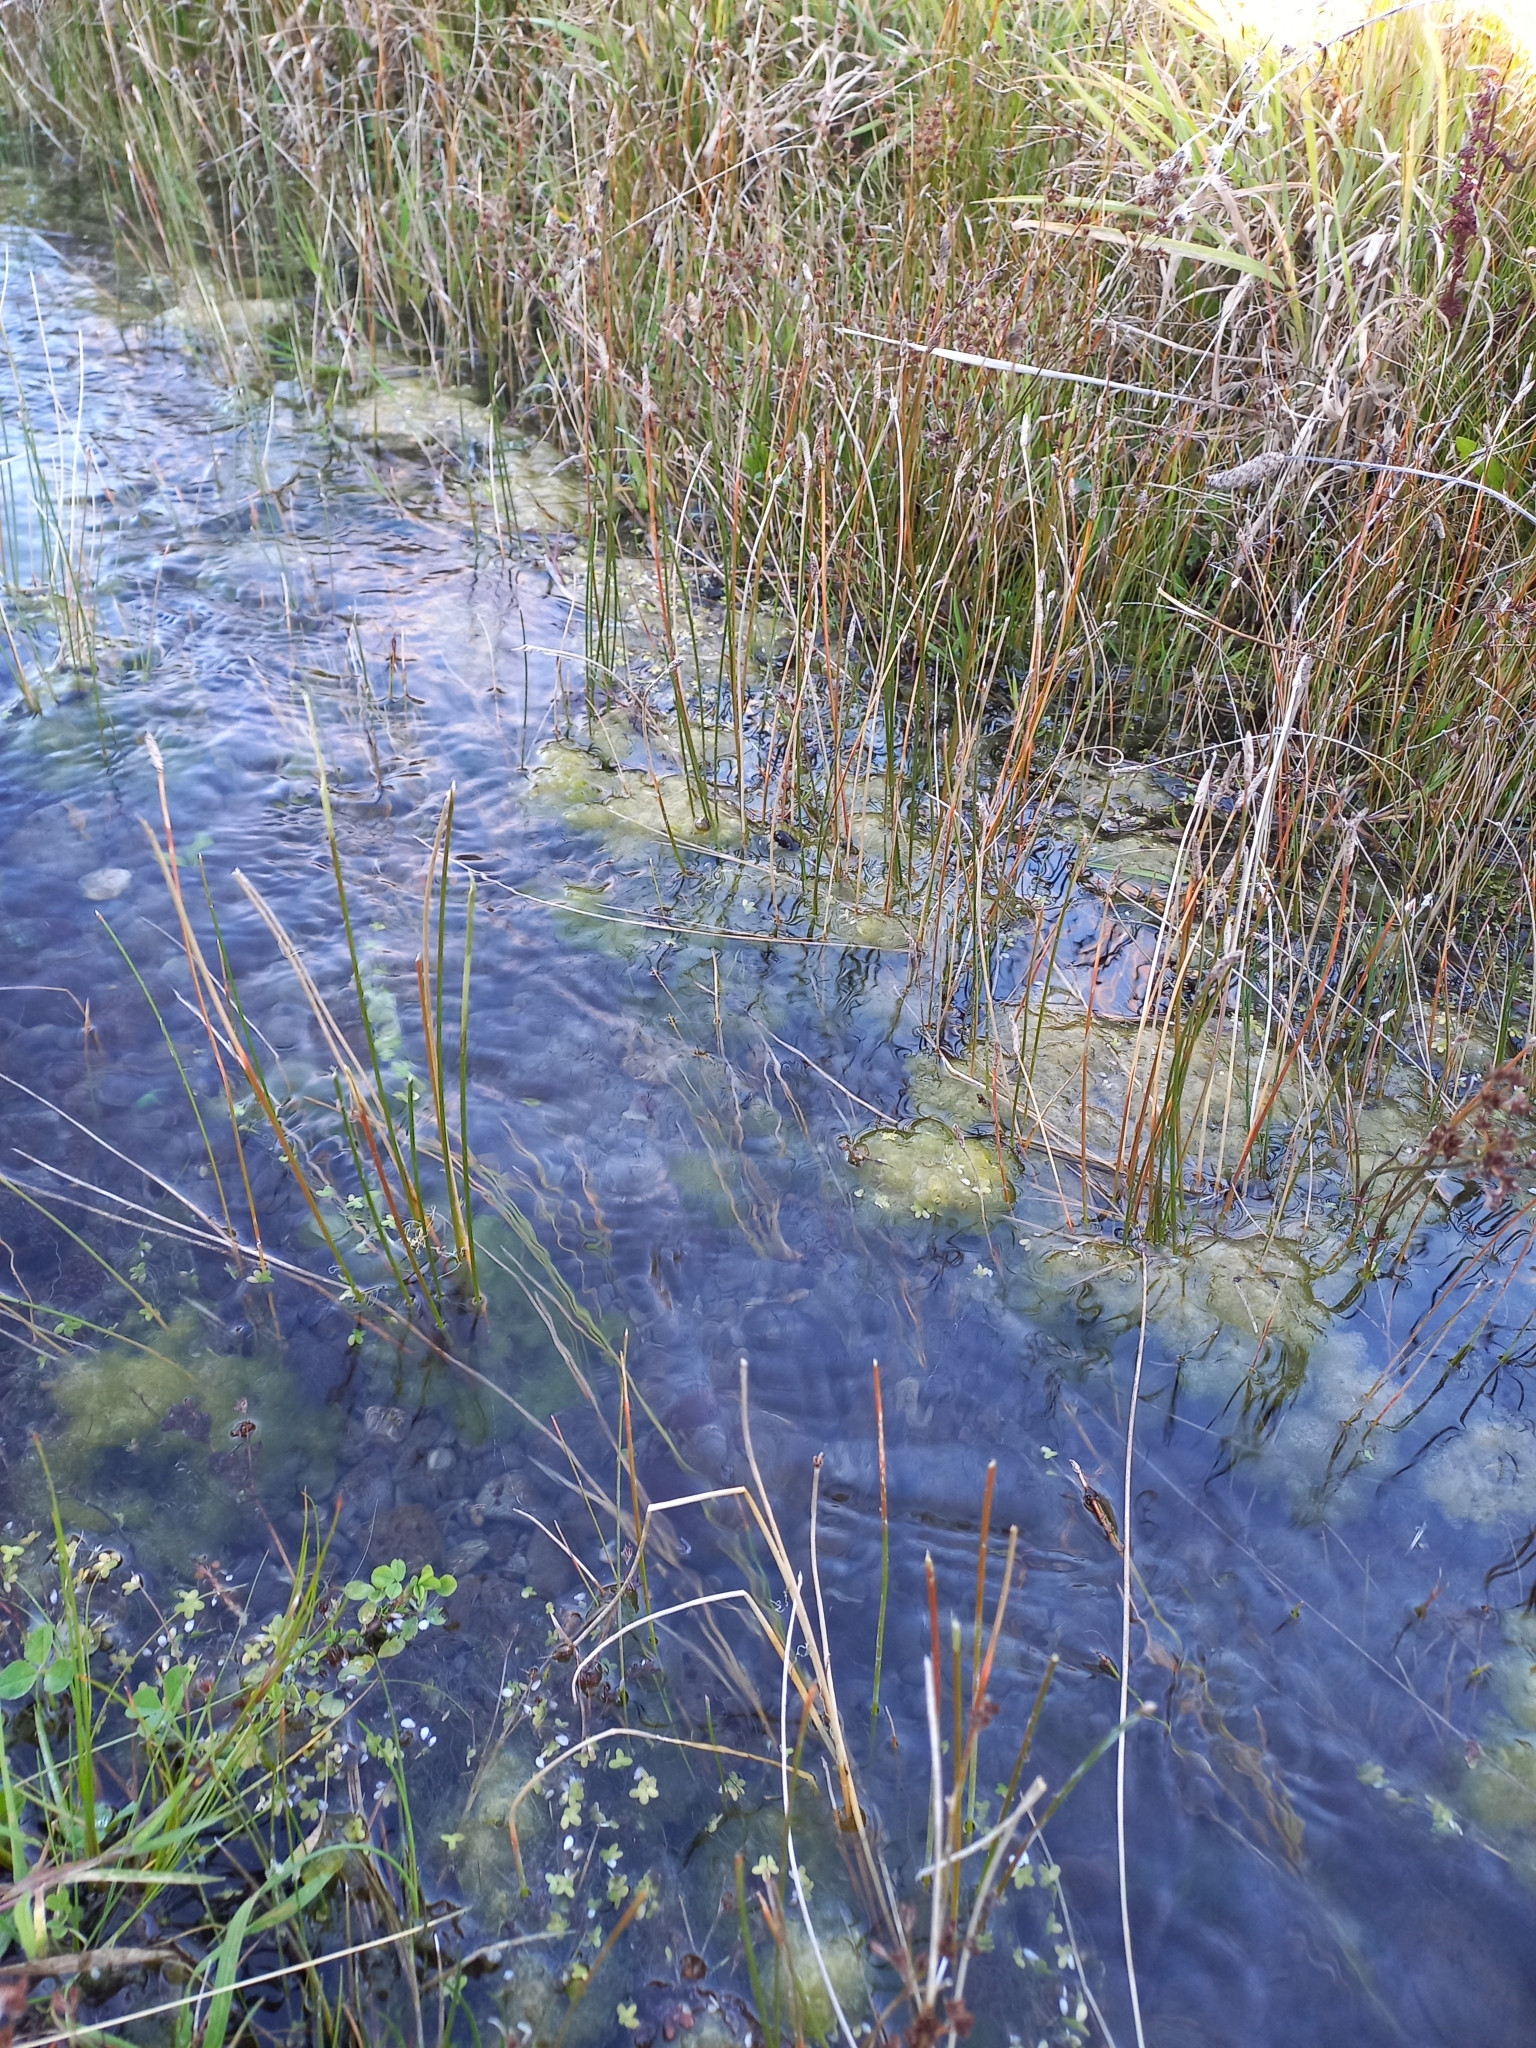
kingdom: Plantae
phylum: Tracheophyta
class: Liliopsida
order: Poales
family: Cyperaceae
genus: Eleocharis
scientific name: Eleocharis acuta
